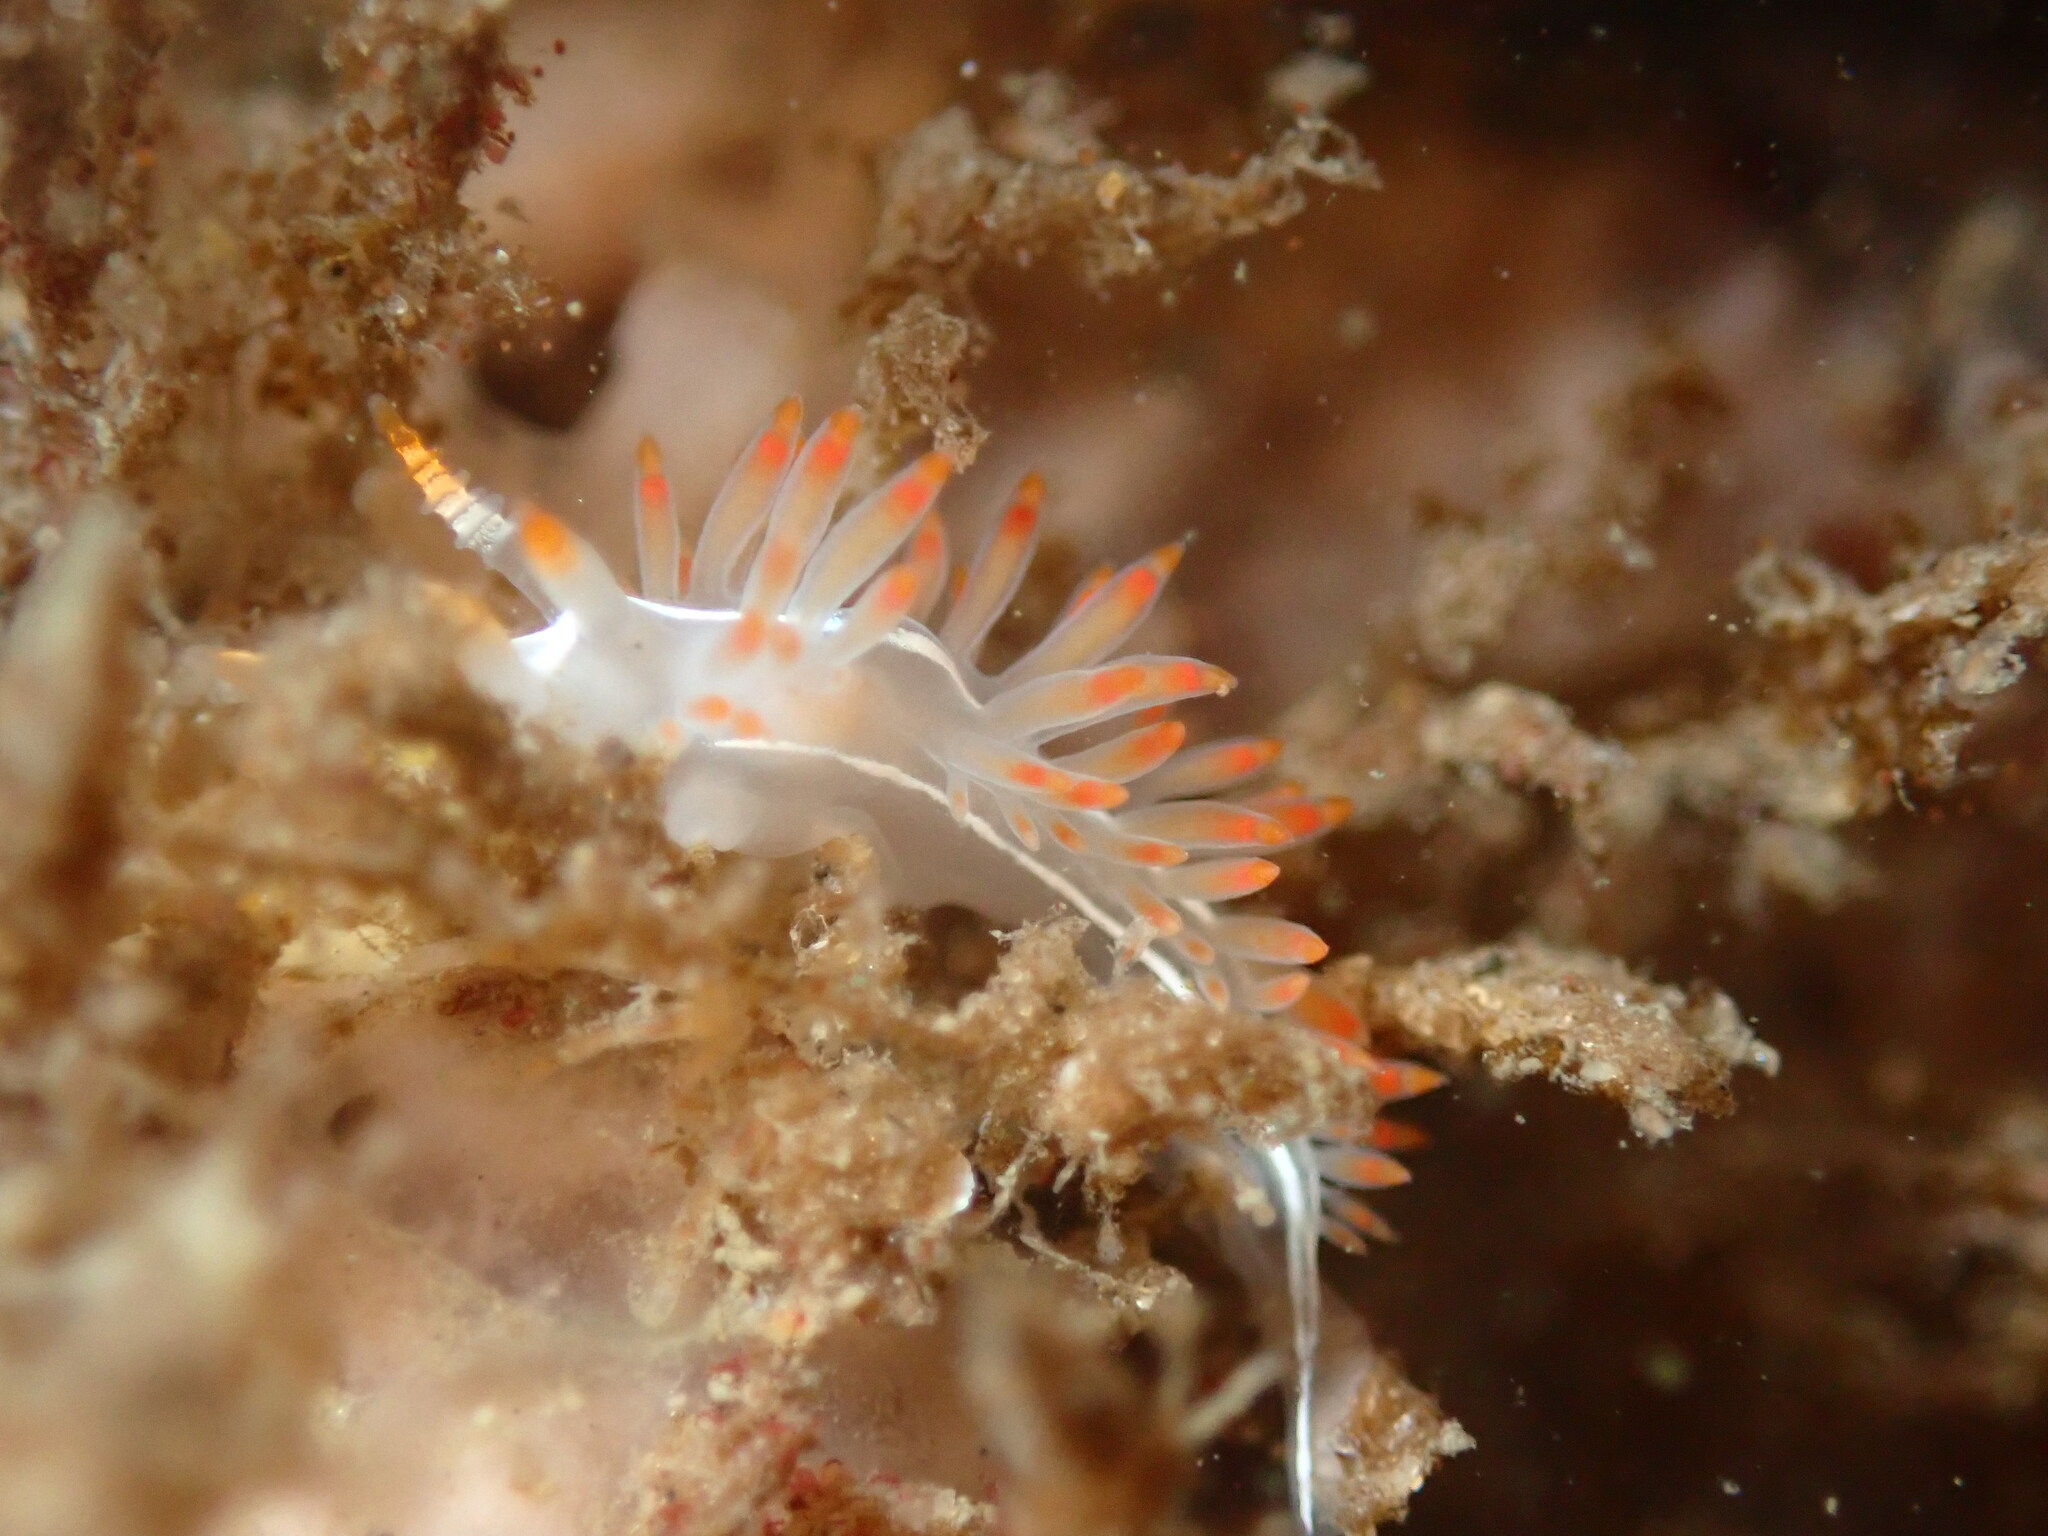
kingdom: Animalia
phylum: Mollusca
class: Gastropoda
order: Nudibranchia
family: Coryphellidae
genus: Coryphella
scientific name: Coryphella trilineata
